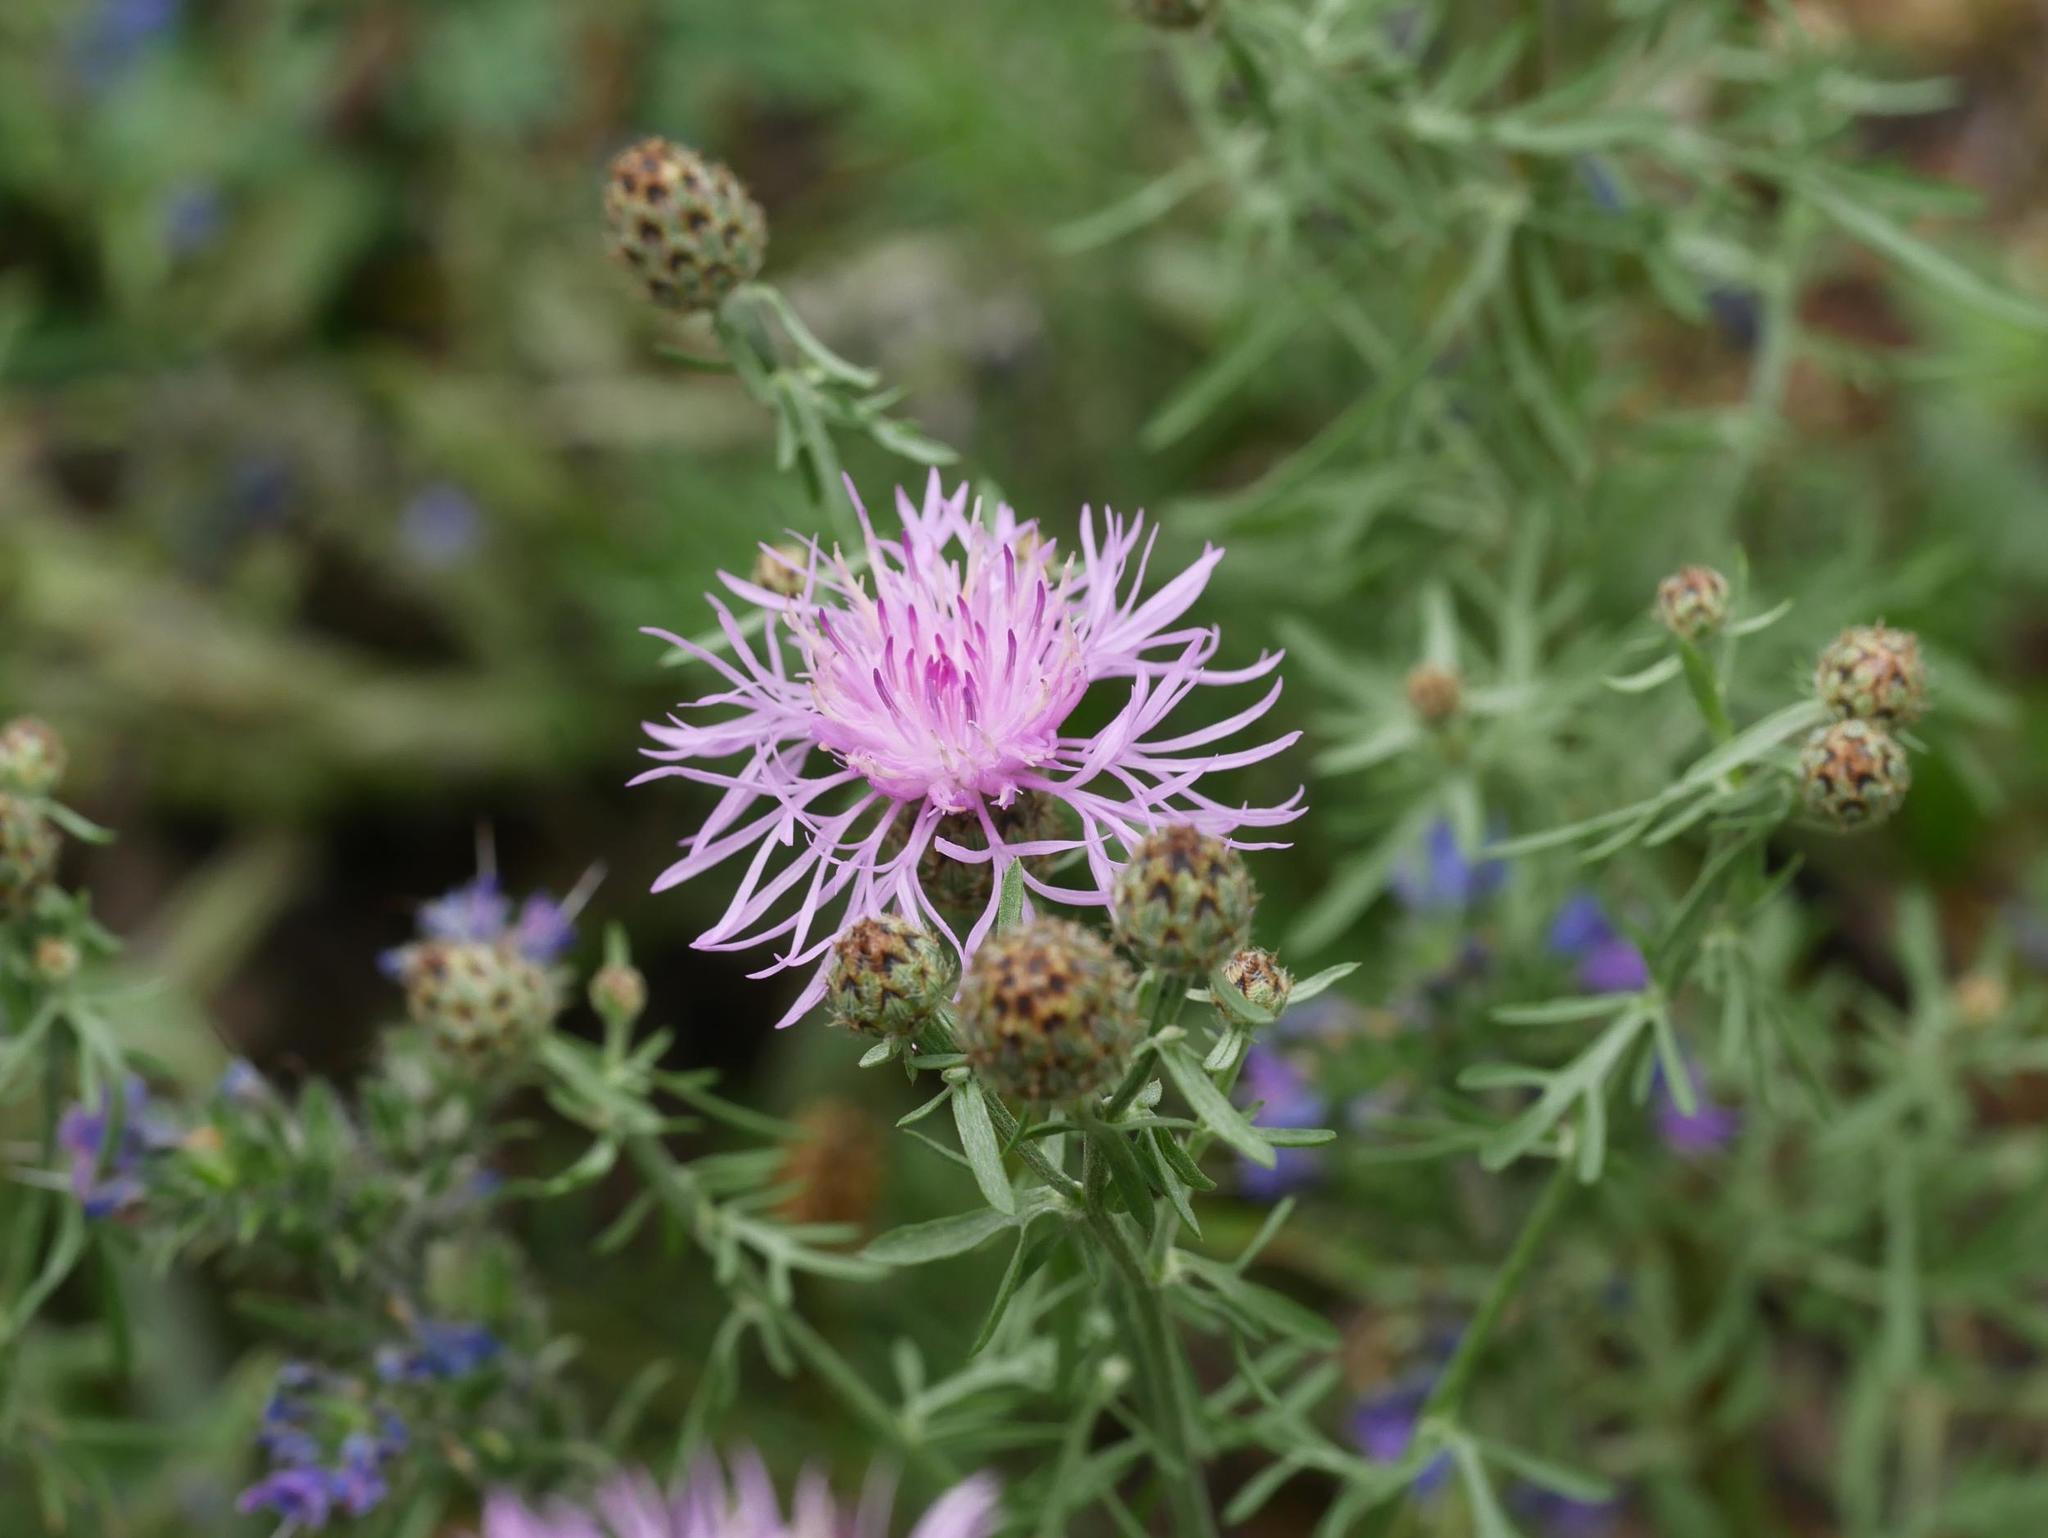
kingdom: Plantae
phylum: Tracheophyta
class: Magnoliopsida
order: Asterales
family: Asteraceae
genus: Centaurea
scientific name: Centaurea stoebe
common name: Spotted knapweed
